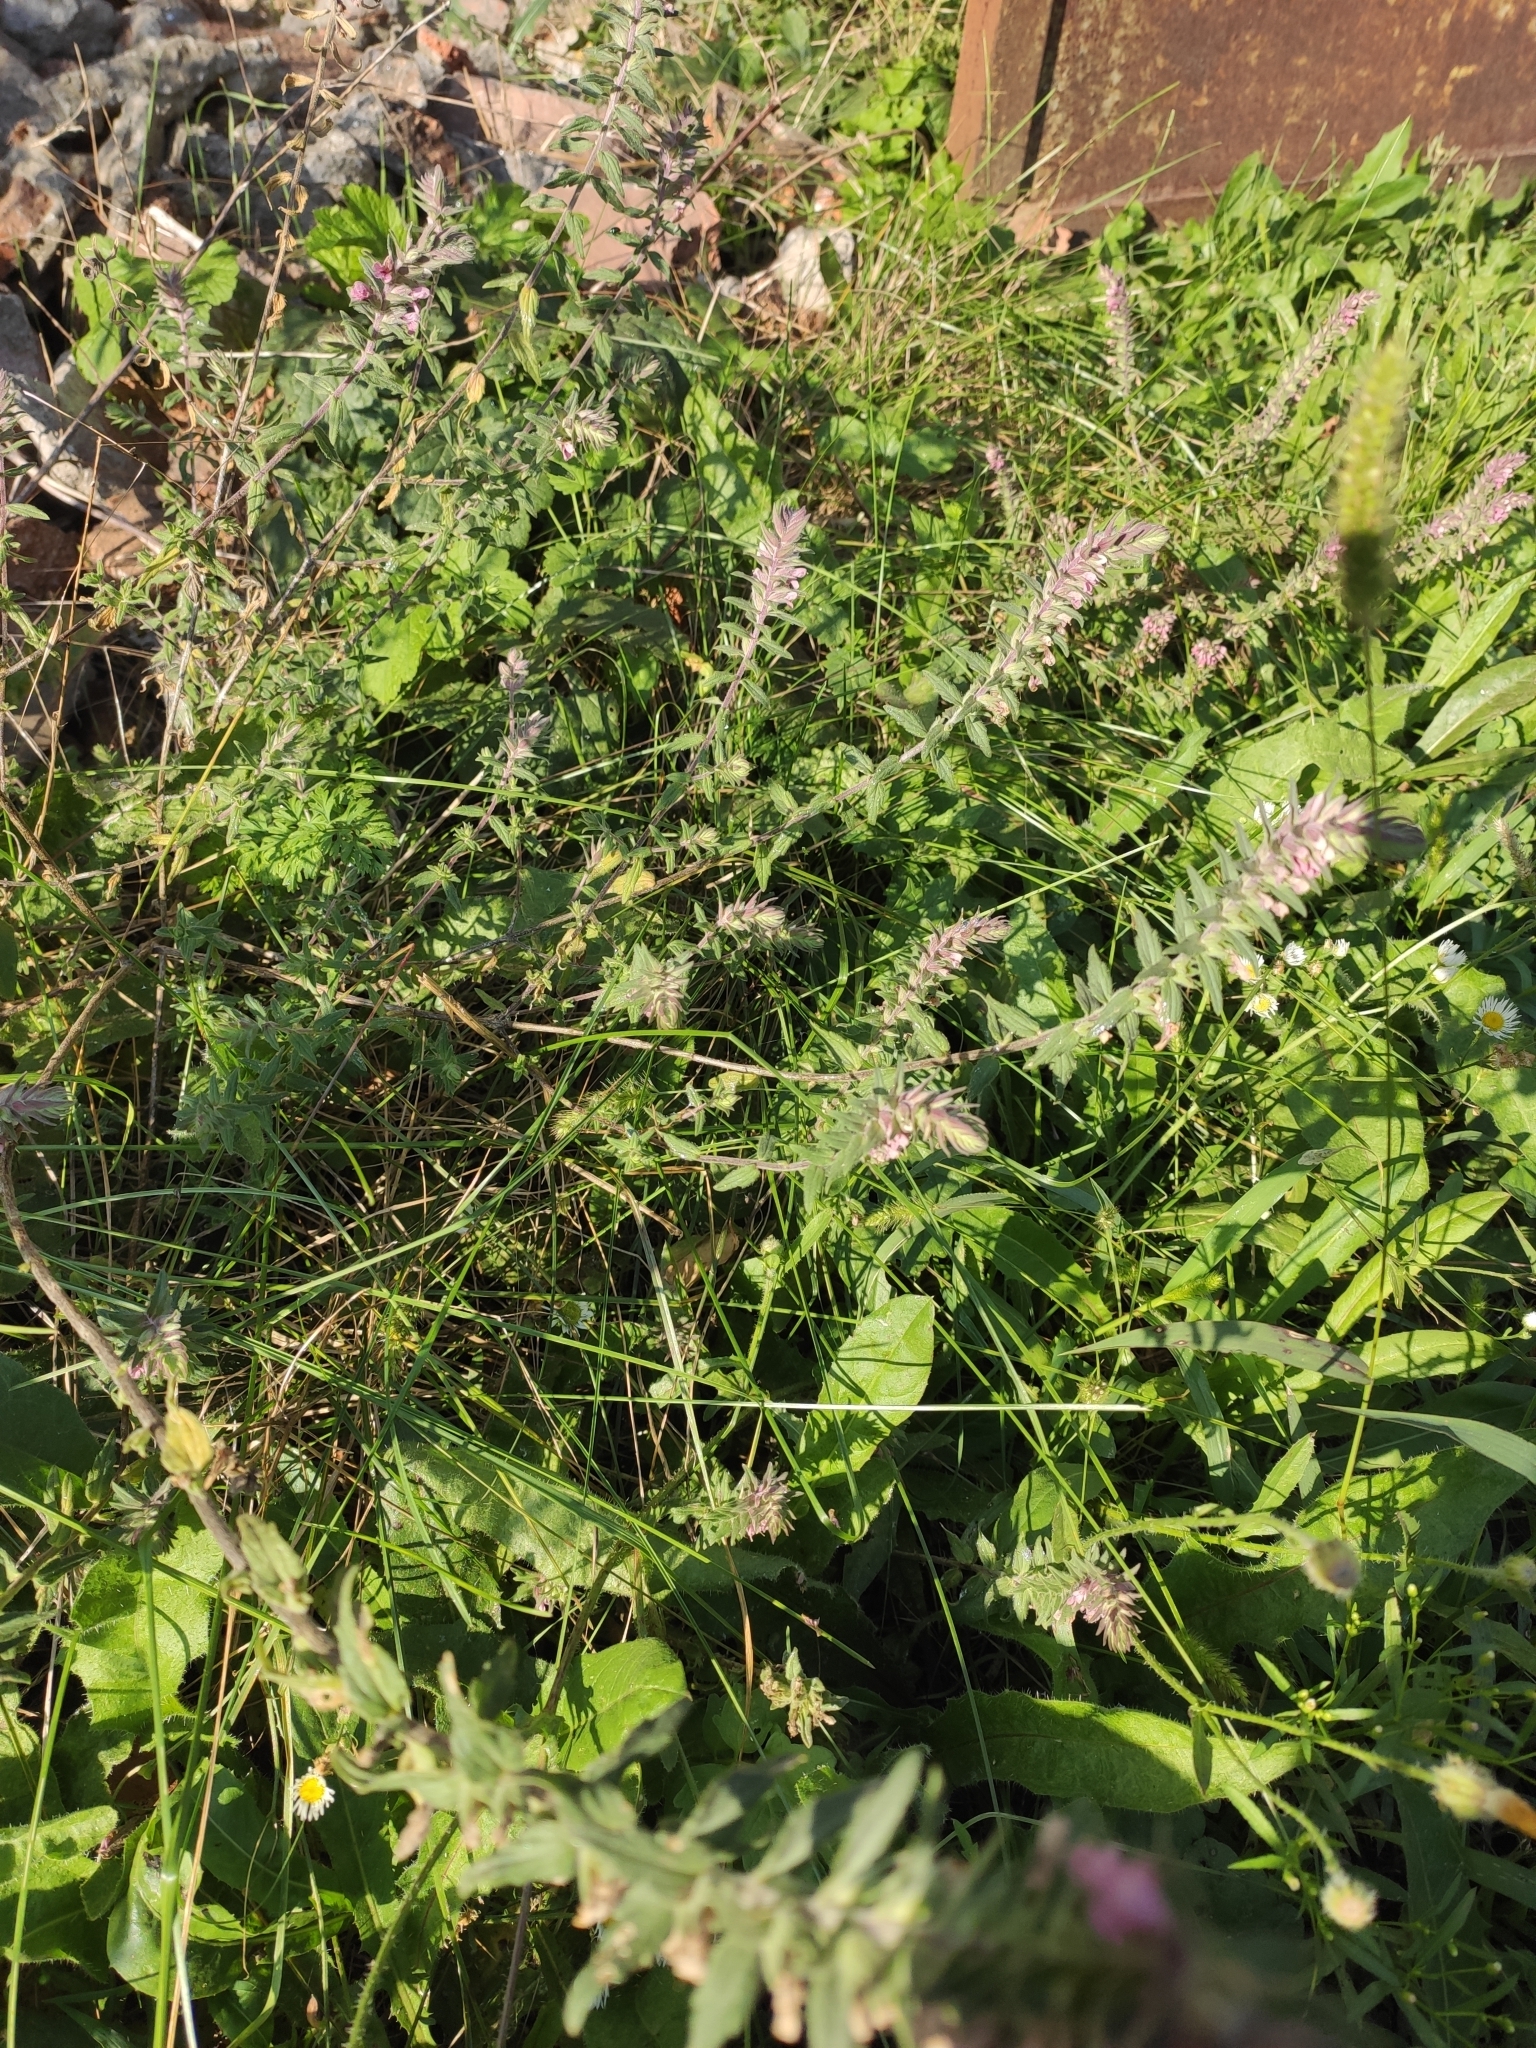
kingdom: Plantae
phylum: Tracheophyta
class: Magnoliopsida
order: Lamiales
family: Orobanchaceae
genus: Odontites
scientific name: Odontites vulgaris
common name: Broomrape
